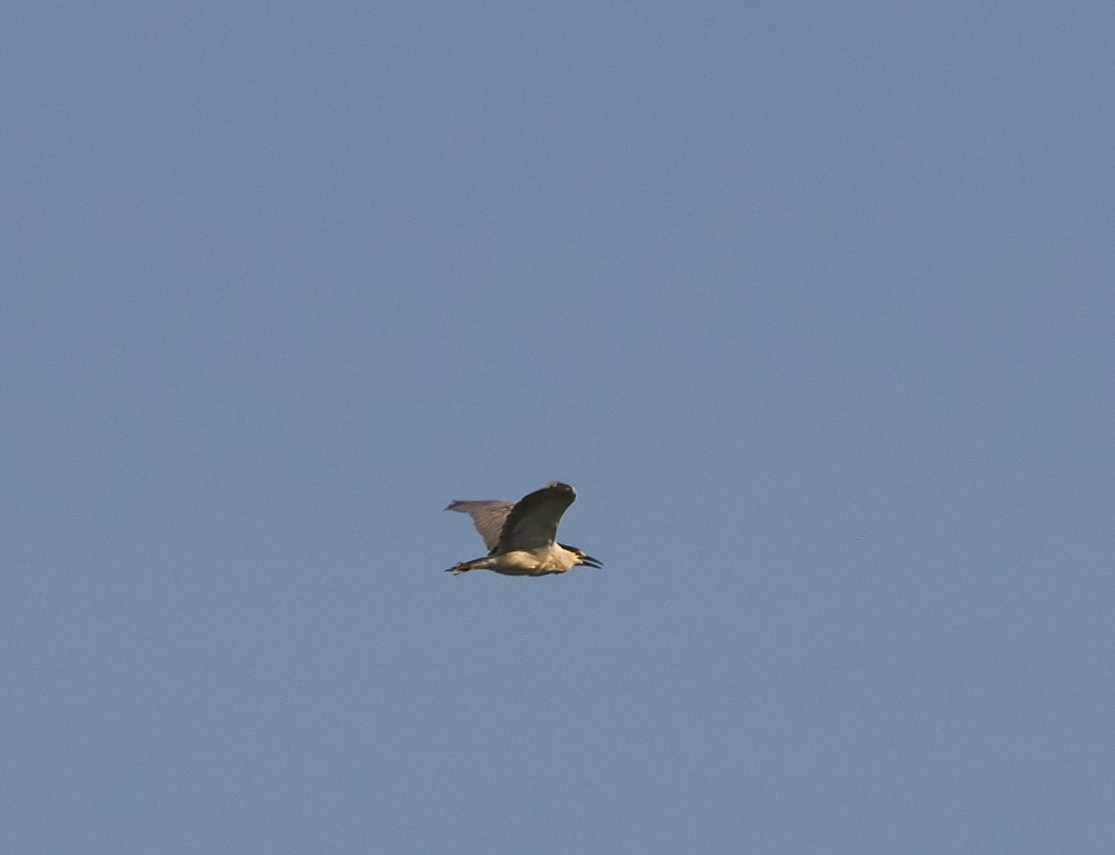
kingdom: Animalia
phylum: Chordata
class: Aves
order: Pelecaniformes
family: Ardeidae
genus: Nycticorax
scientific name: Nycticorax nycticorax
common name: Black-crowned night heron
